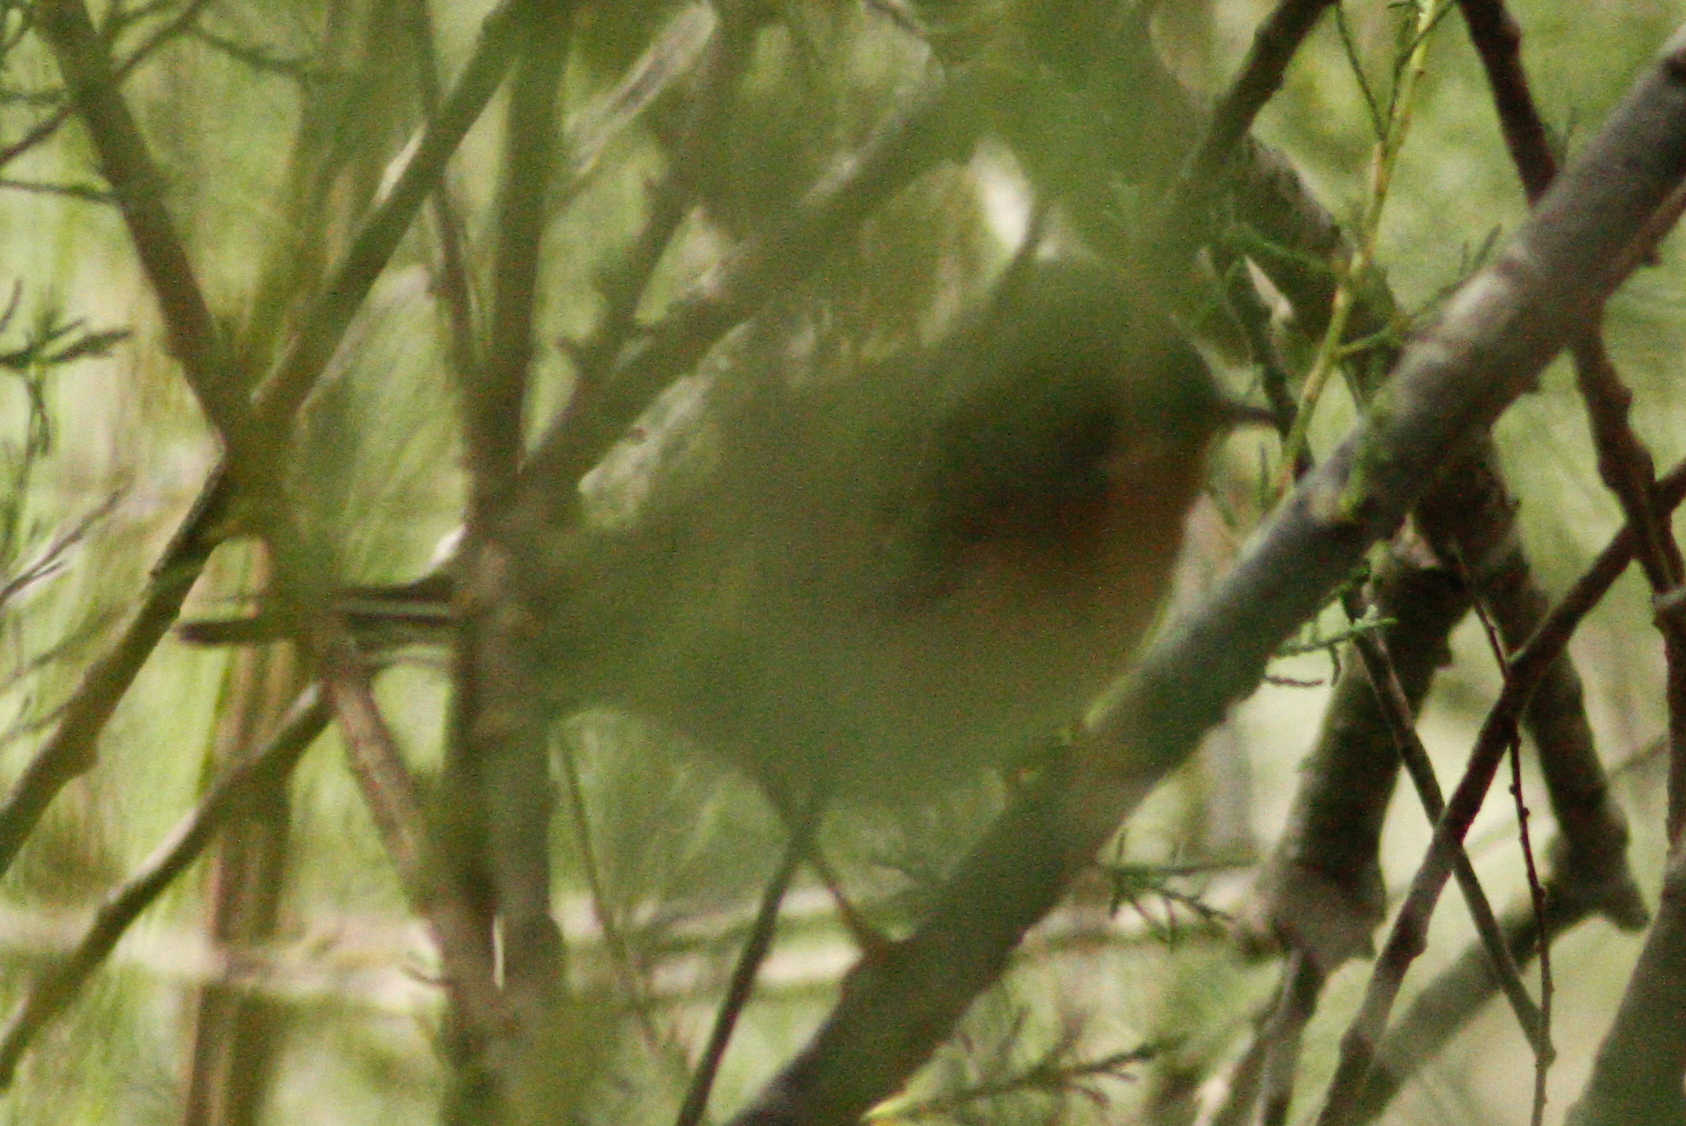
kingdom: Animalia
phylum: Chordata
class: Aves
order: Passeriformes
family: Sylviidae
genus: Curruca
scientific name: Curruca subalpina
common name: Moltoni's warbler
